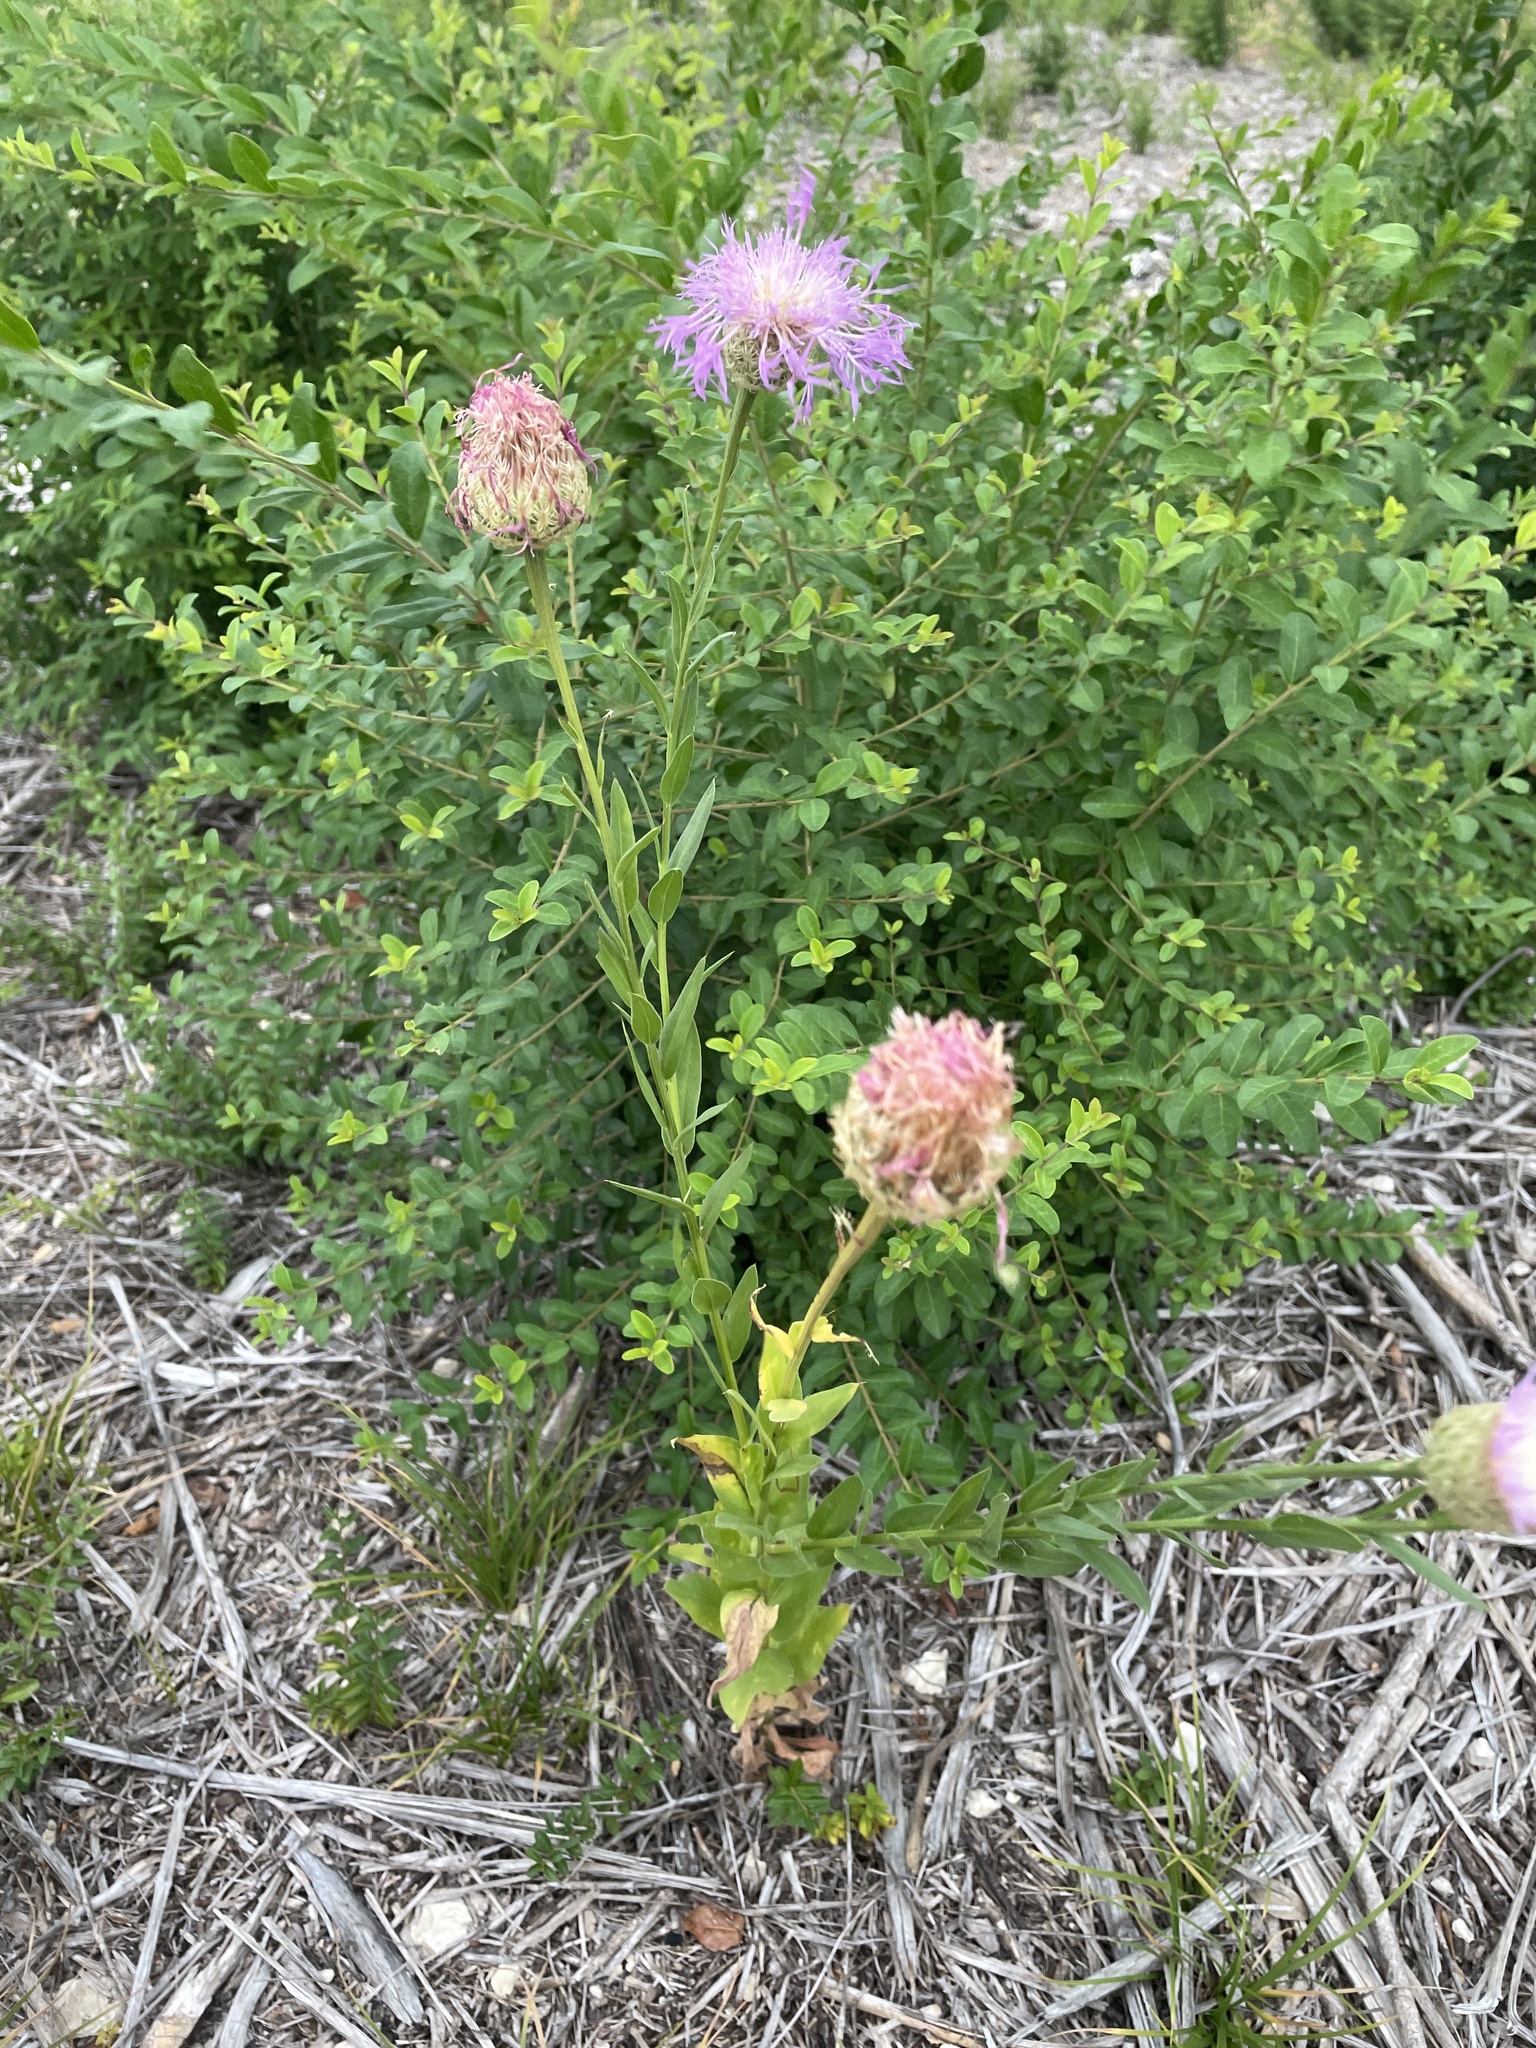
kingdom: Plantae
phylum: Tracheophyta
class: Magnoliopsida
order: Asterales
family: Asteraceae
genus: Plectocephalus
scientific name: Plectocephalus americanus
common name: American basket-flower
